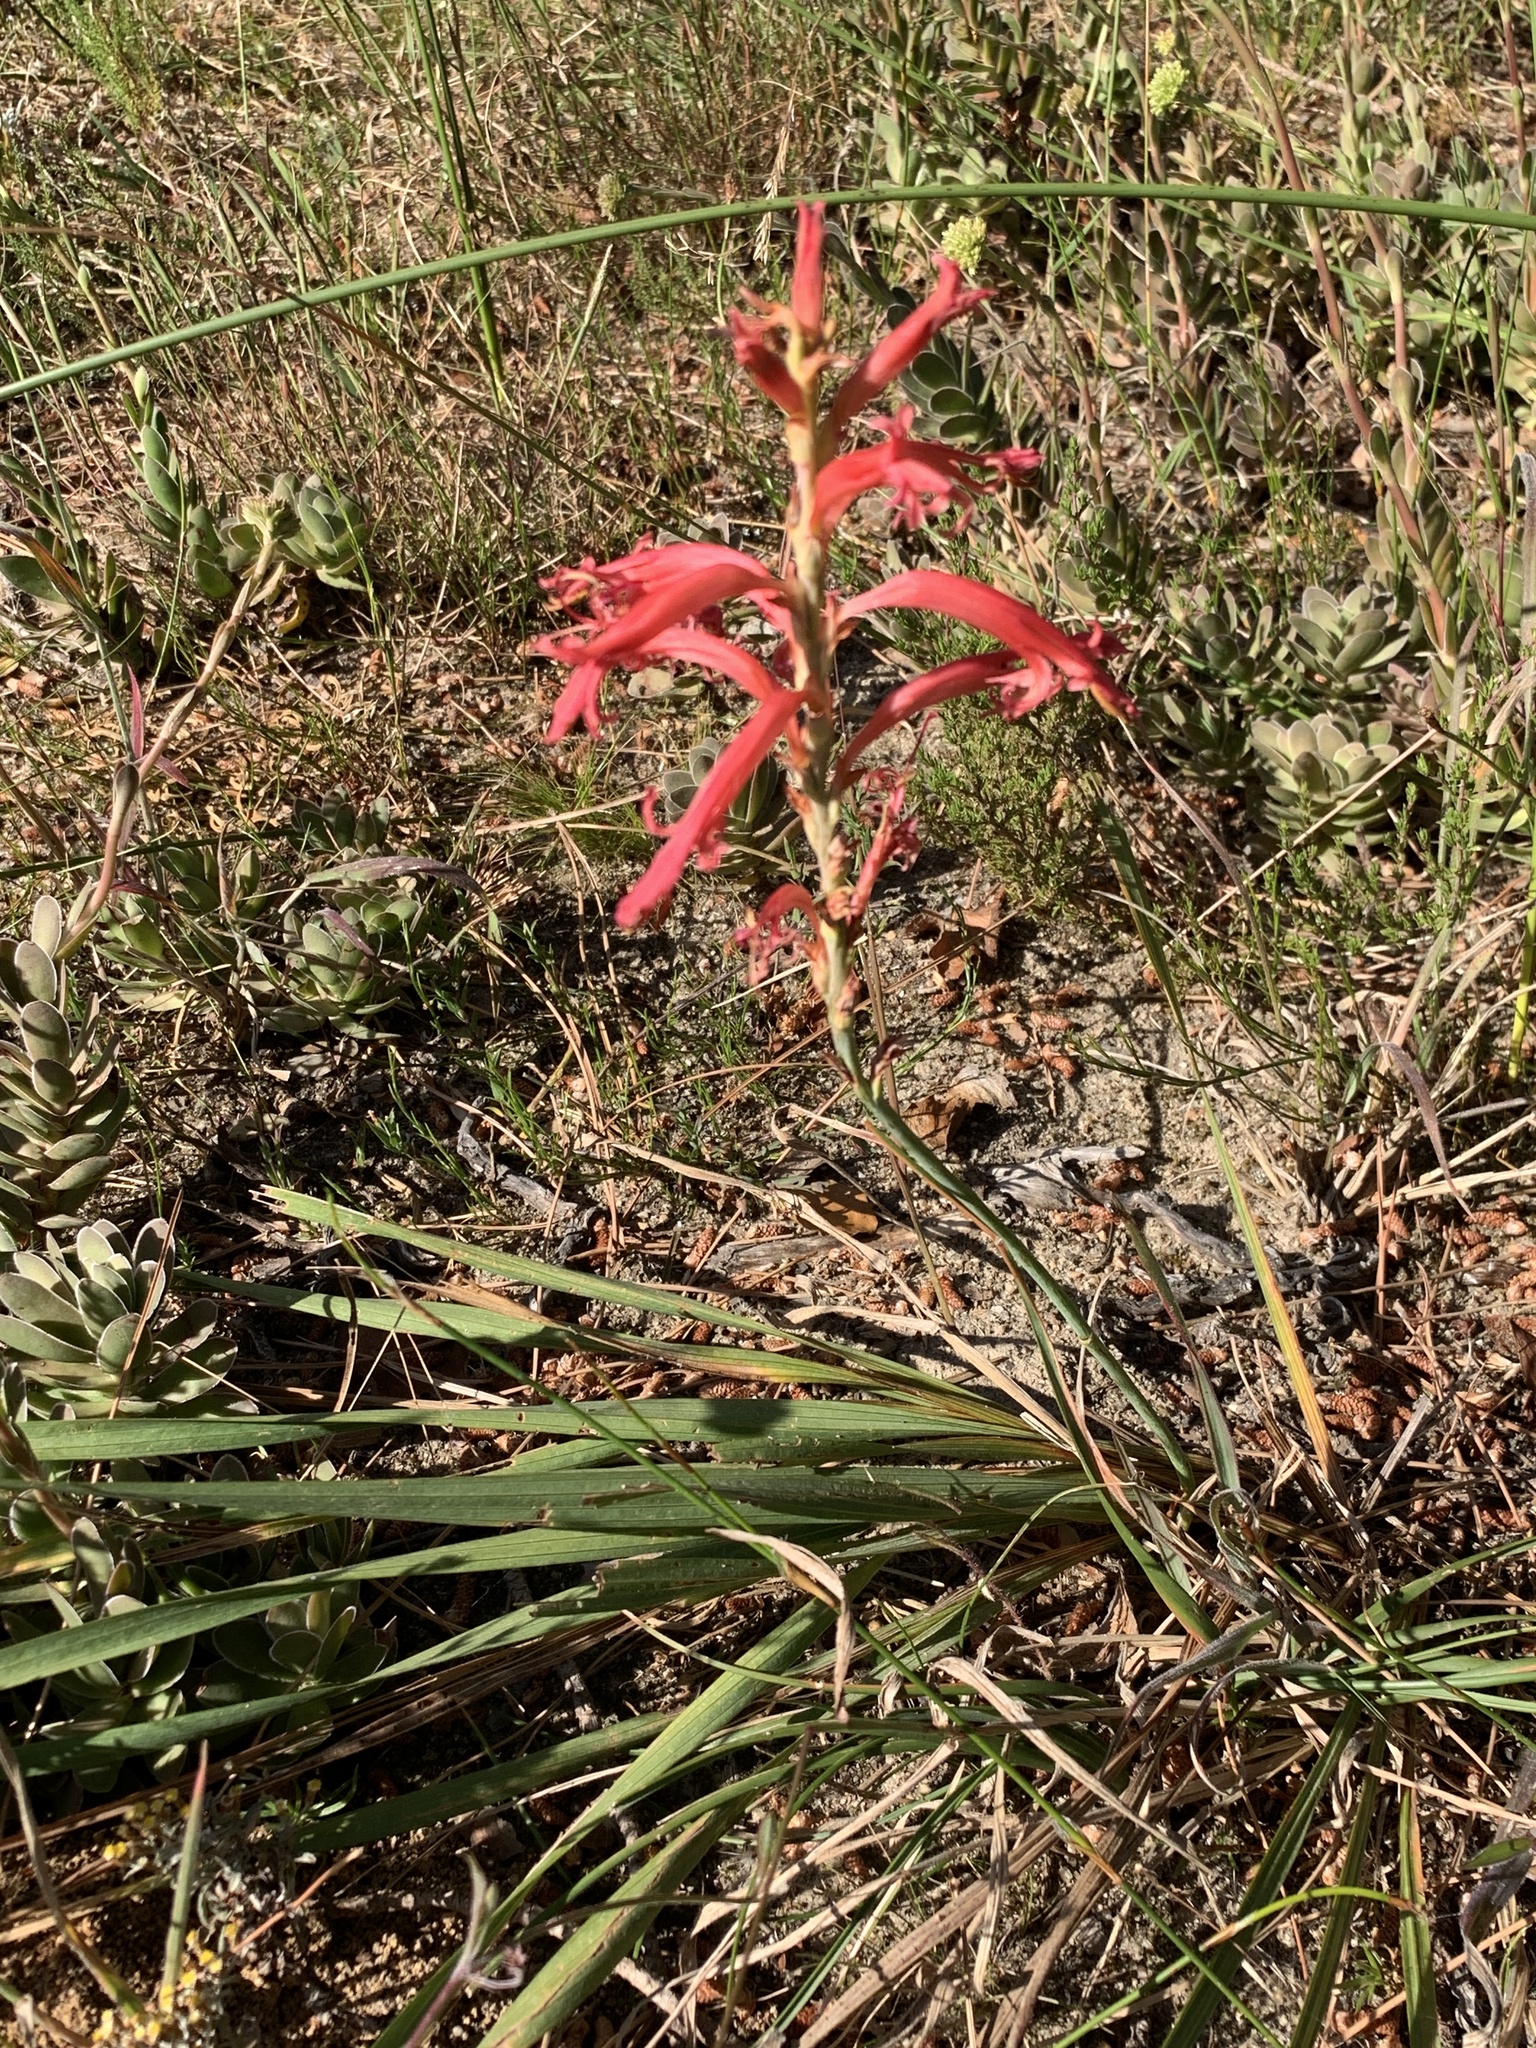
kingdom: Plantae
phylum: Tracheophyta
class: Liliopsida
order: Asparagales
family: Iridaceae
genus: Tritoniopsis
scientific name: Tritoniopsis antholyza
